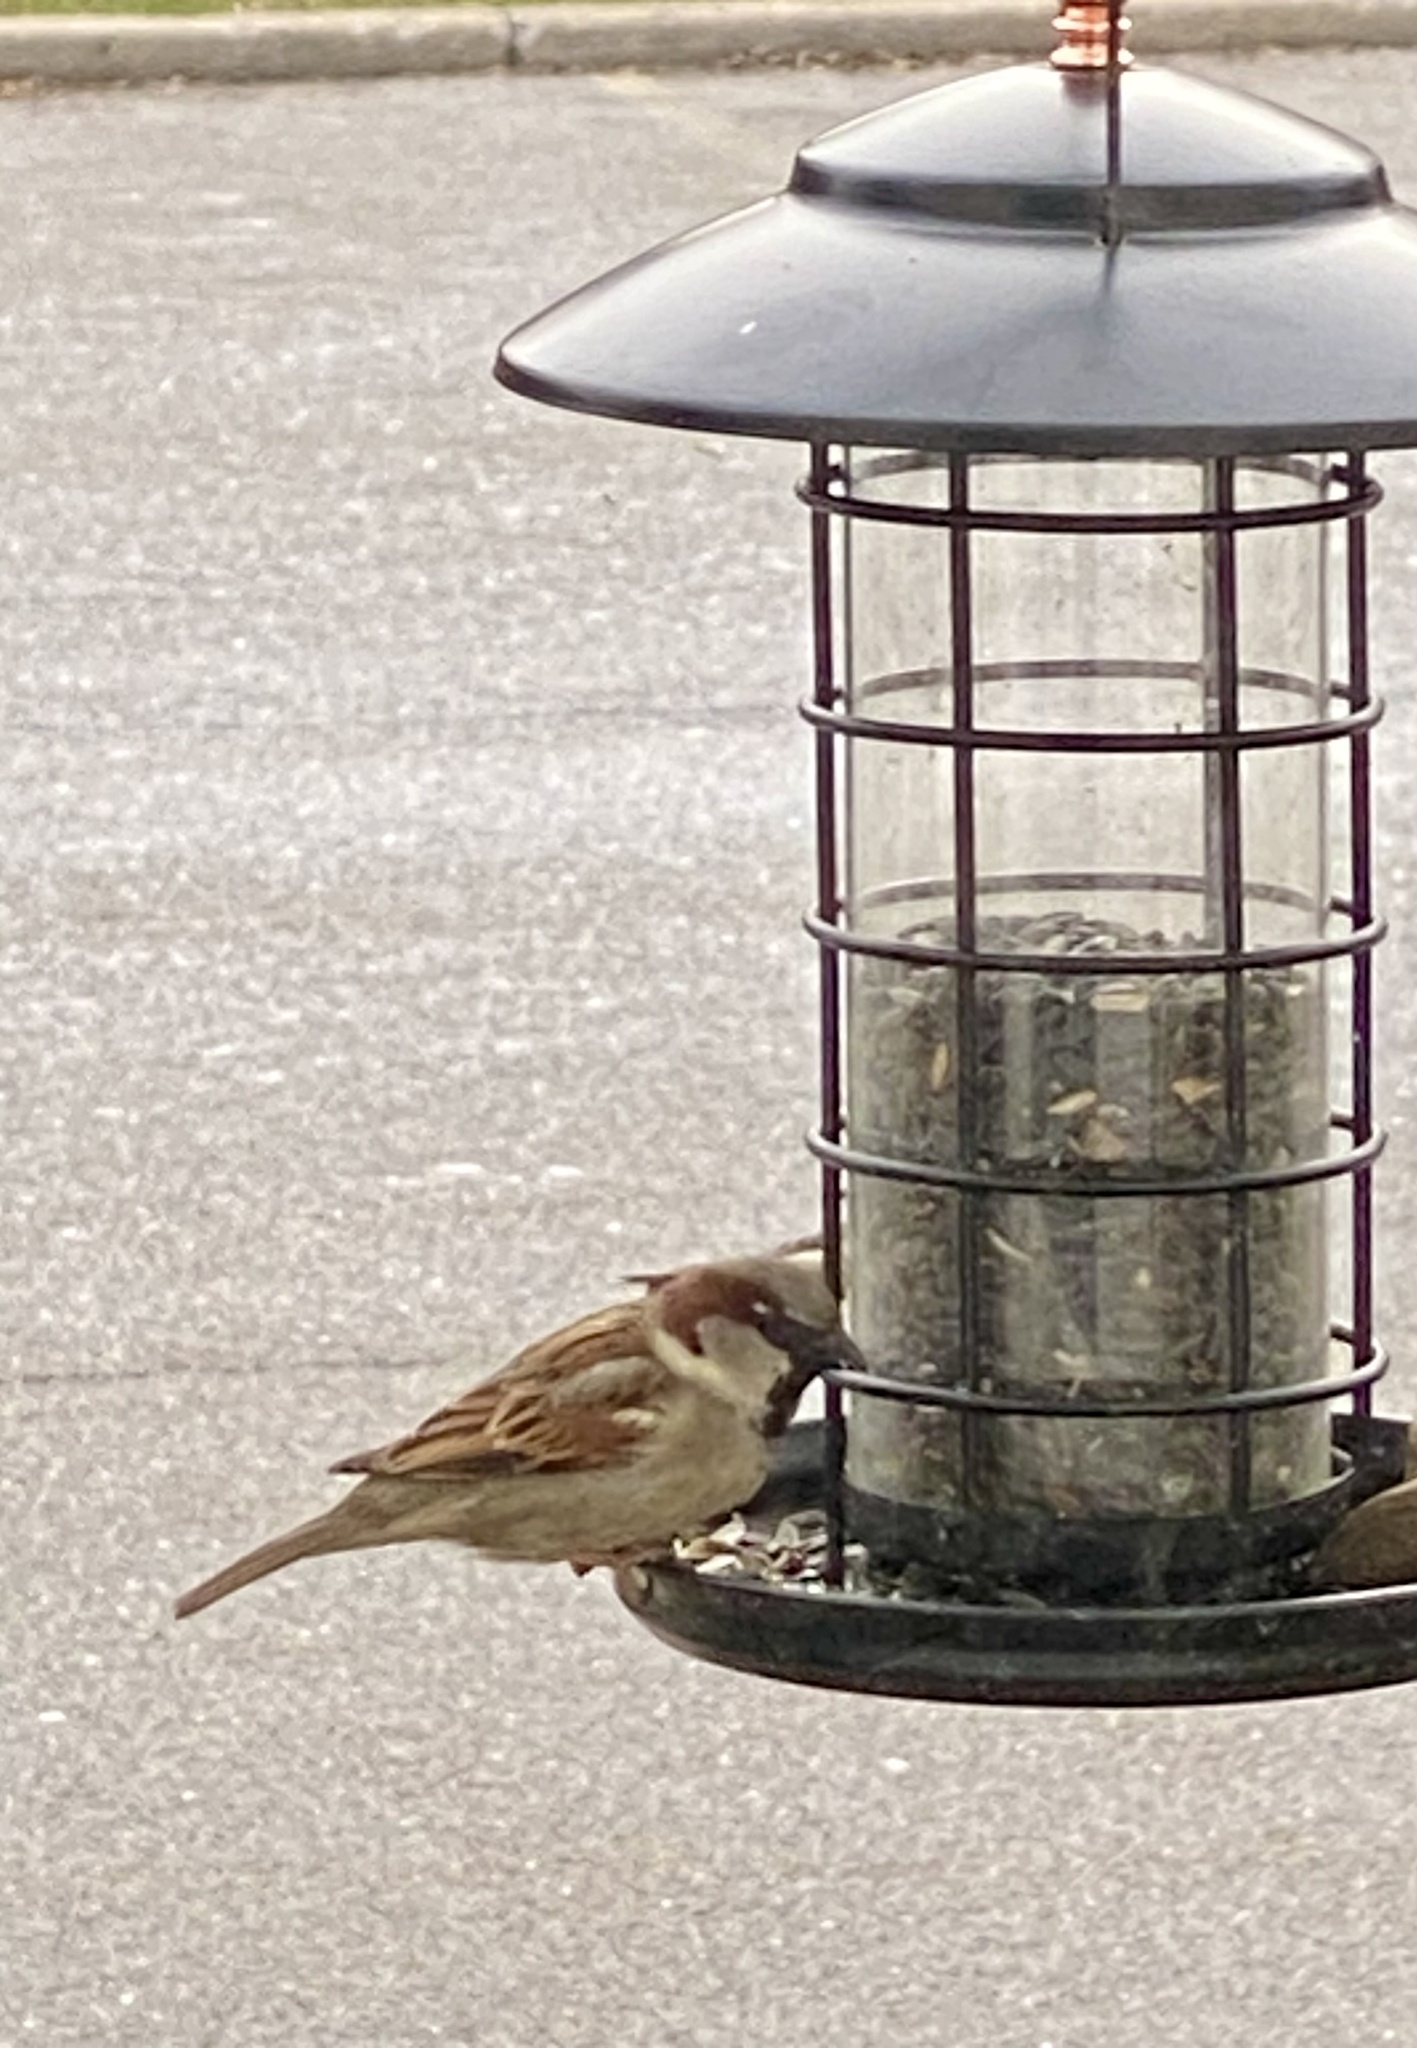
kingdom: Animalia
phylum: Chordata
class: Aves
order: Passeriformes
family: Passeridae
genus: Passer
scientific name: Passer domesticus
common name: House sparrow
